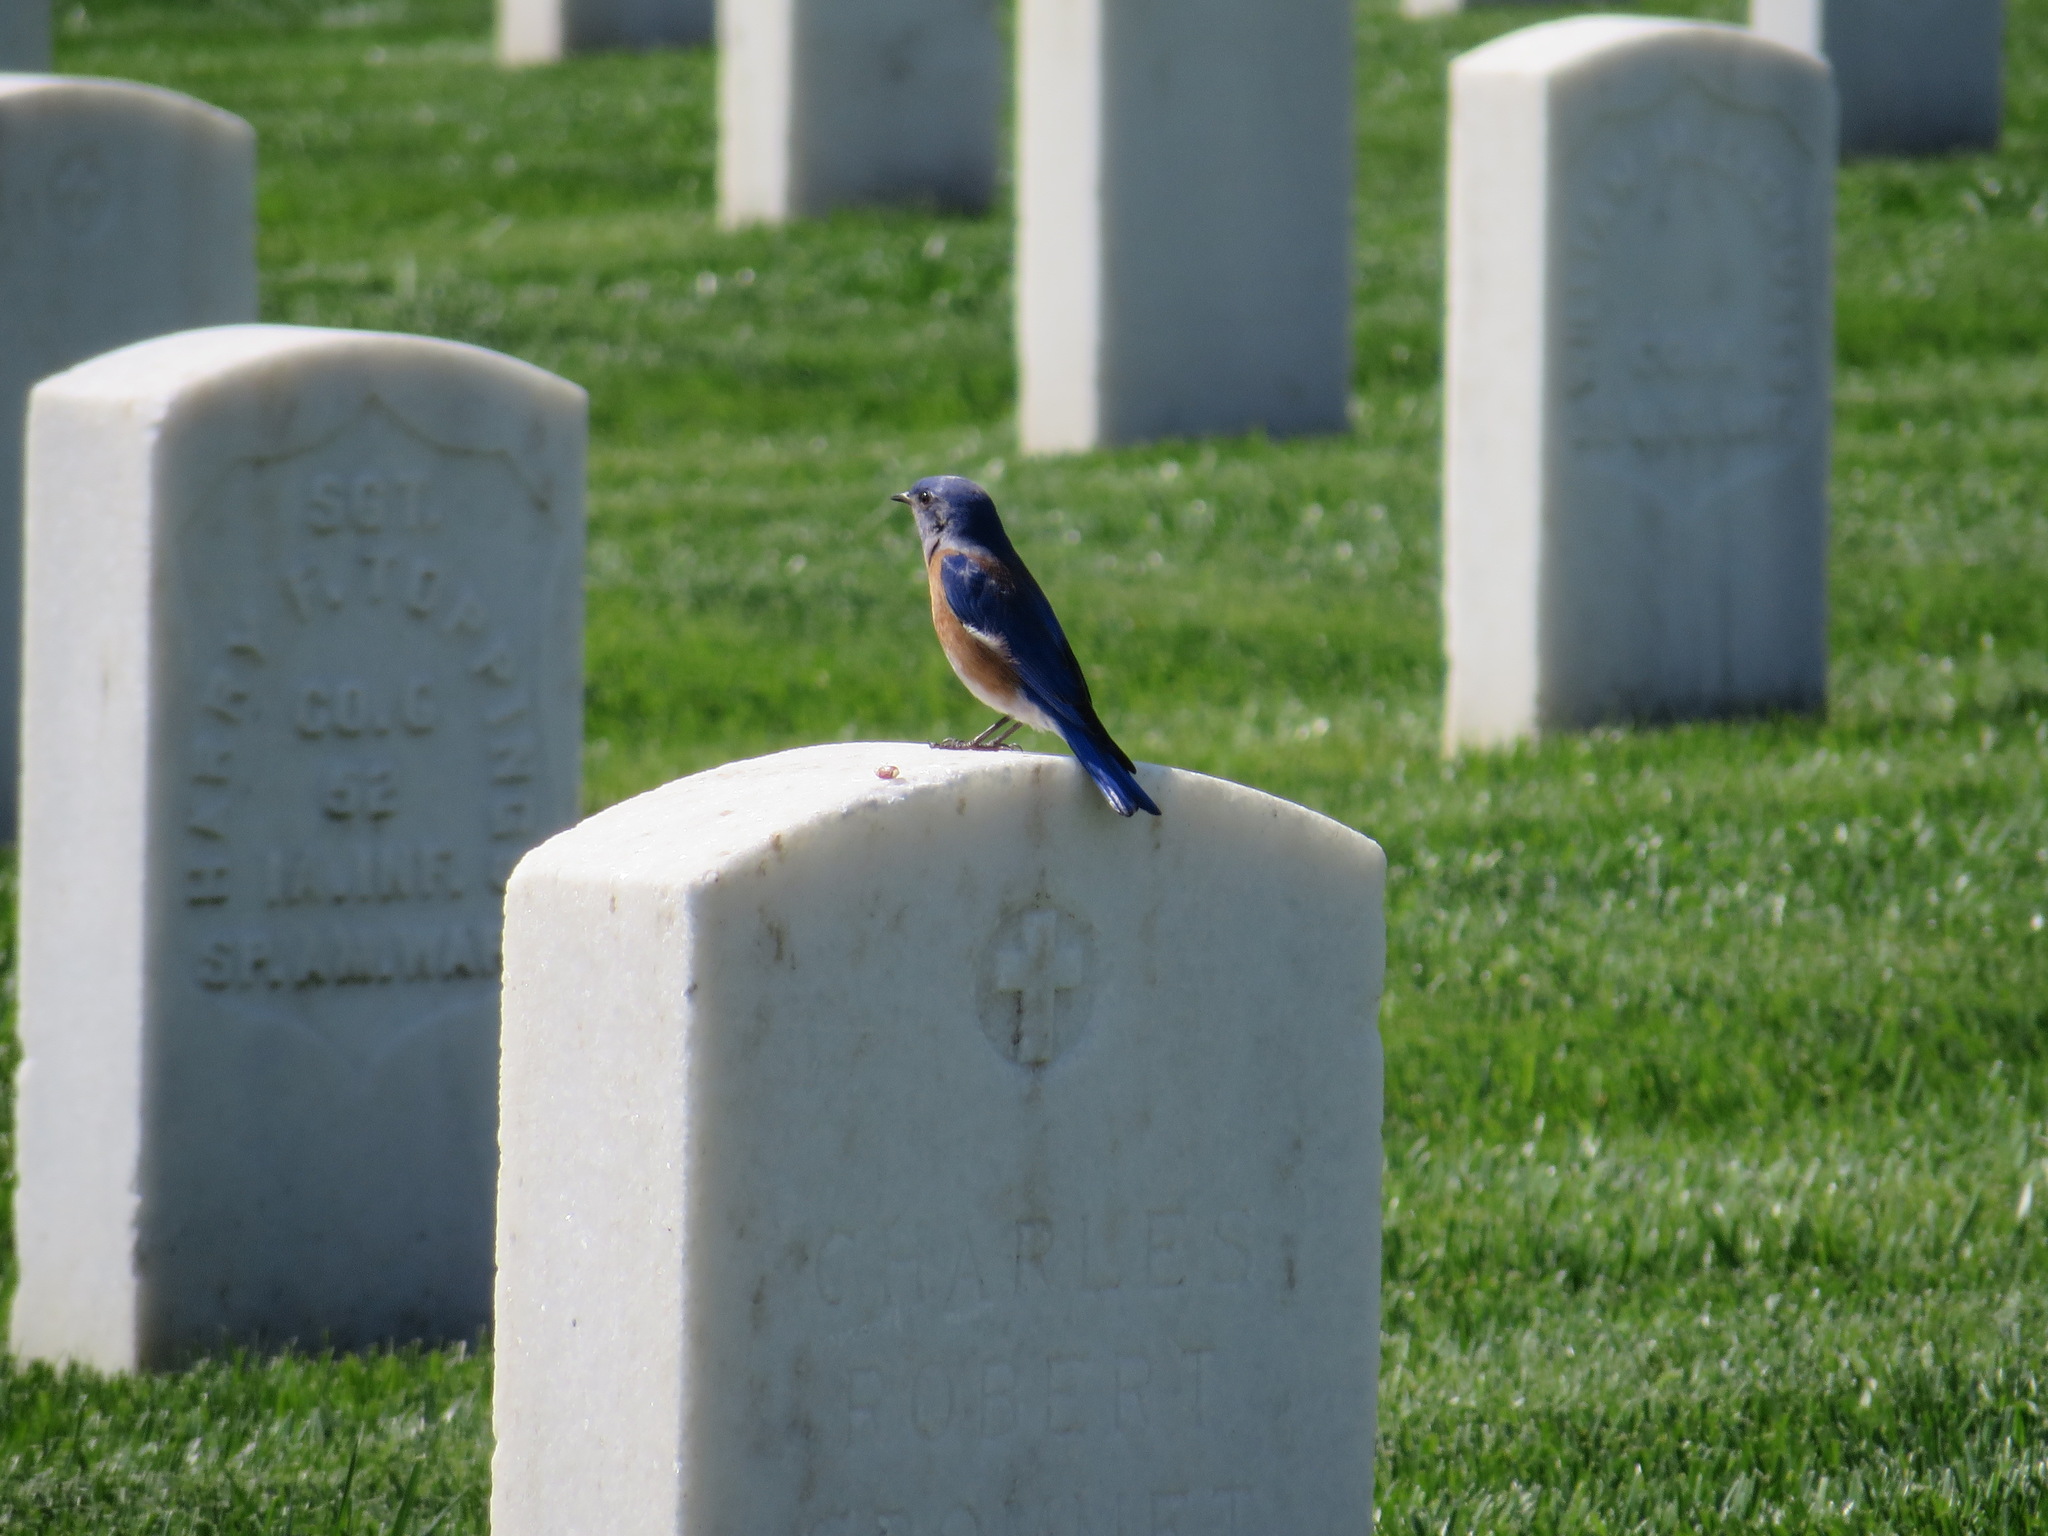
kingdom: Animalia
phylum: Chordata
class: Aves
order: Passeriformes
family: Turdidae
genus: Sialia
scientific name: Sialia mexicana
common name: Western bluebird
